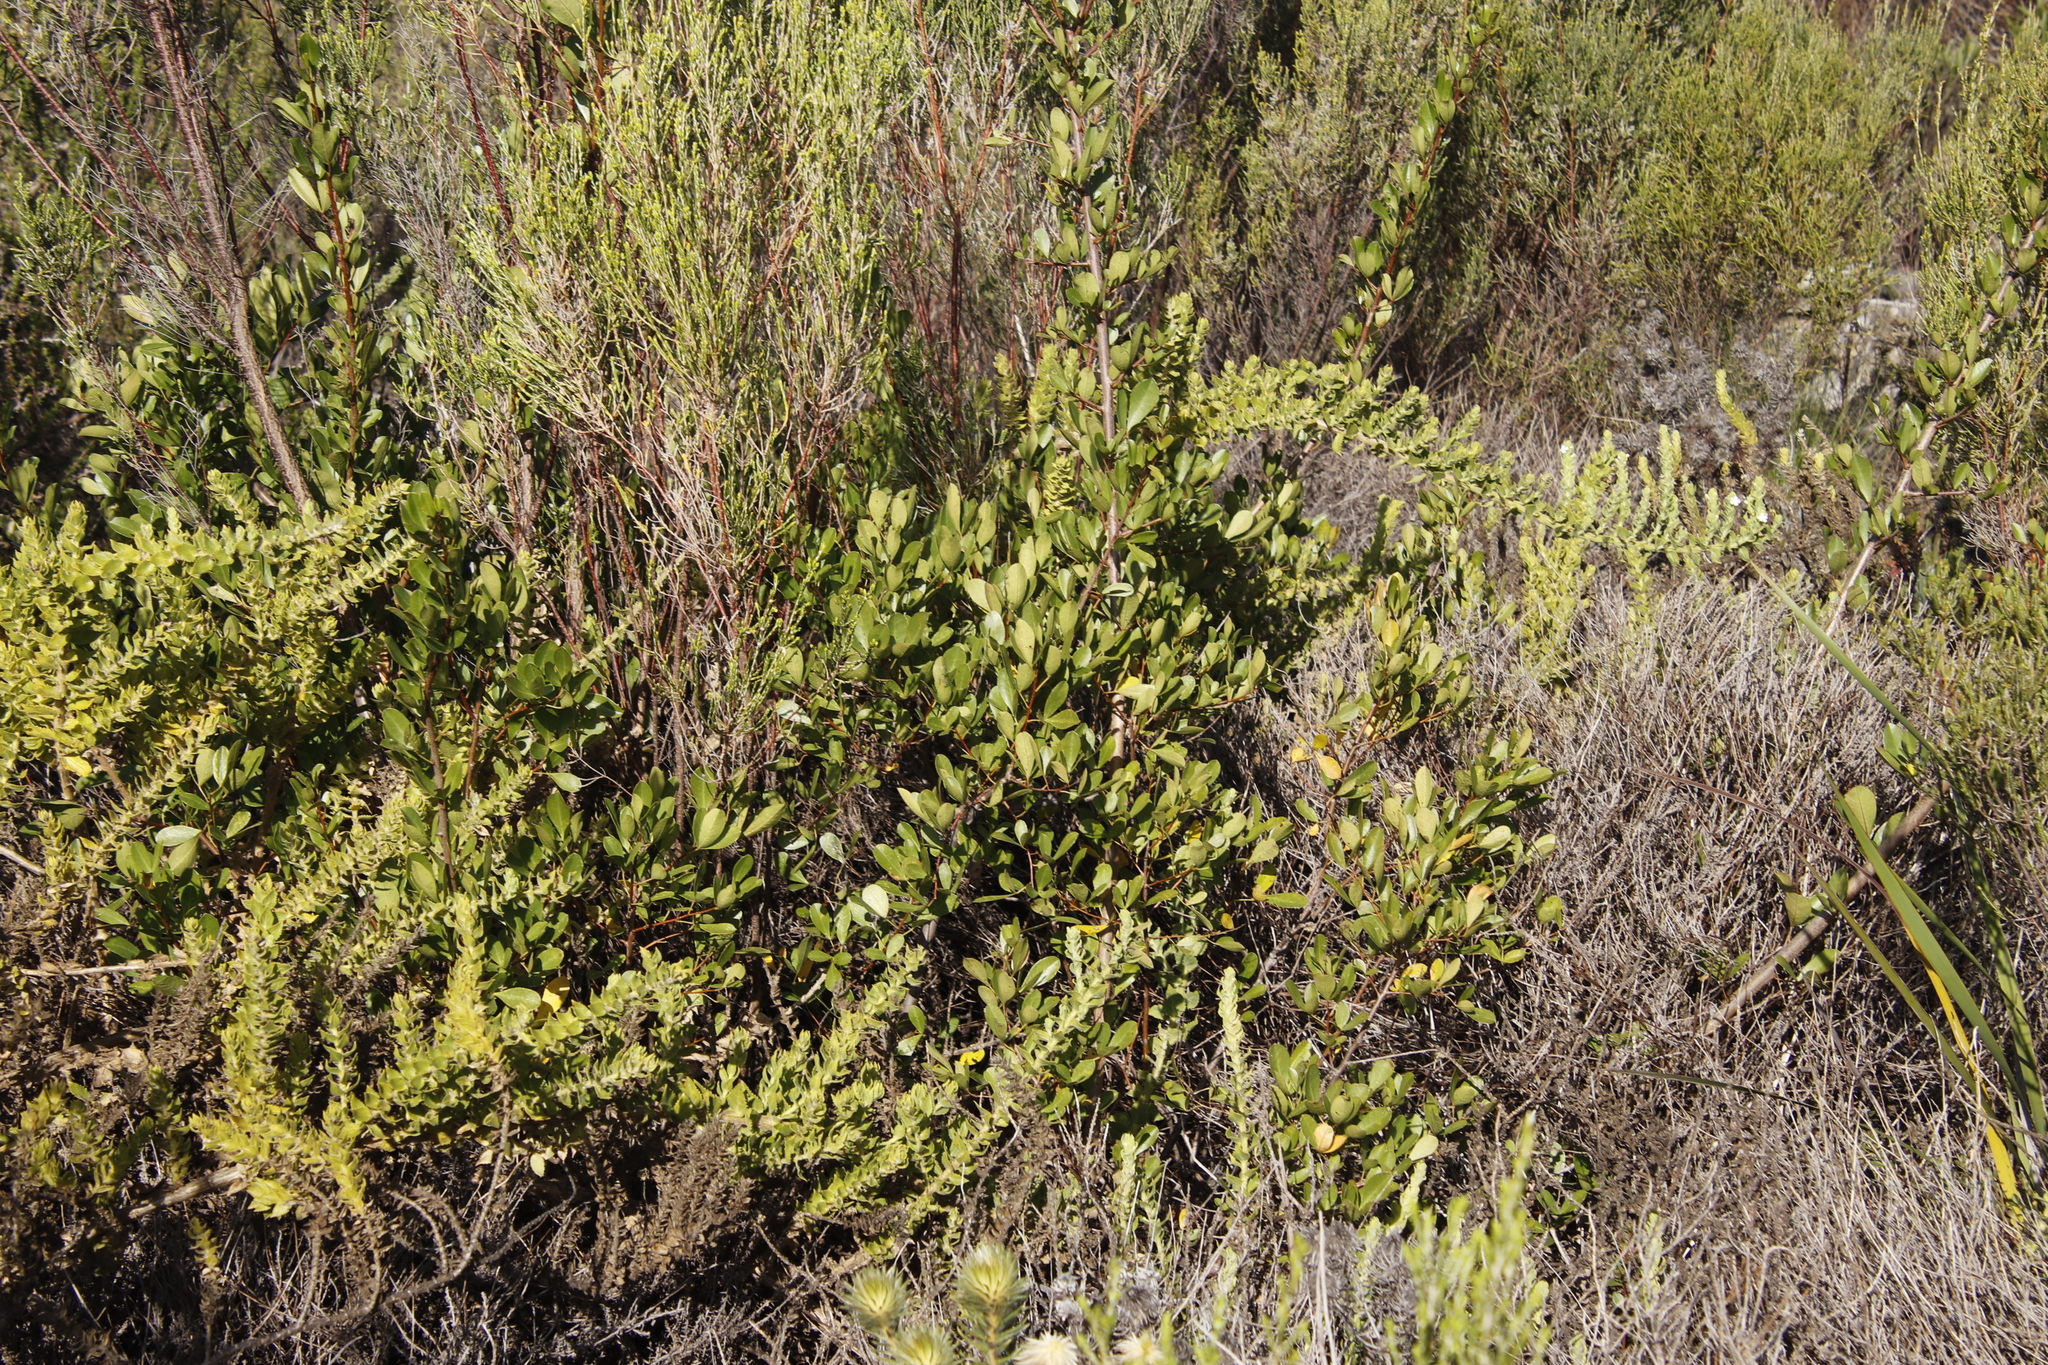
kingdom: Plantae
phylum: Tracheophyta
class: Magnoliopsida
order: Lamiales
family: Scrophulariaceae
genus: Oftia
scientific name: Oftia africana
